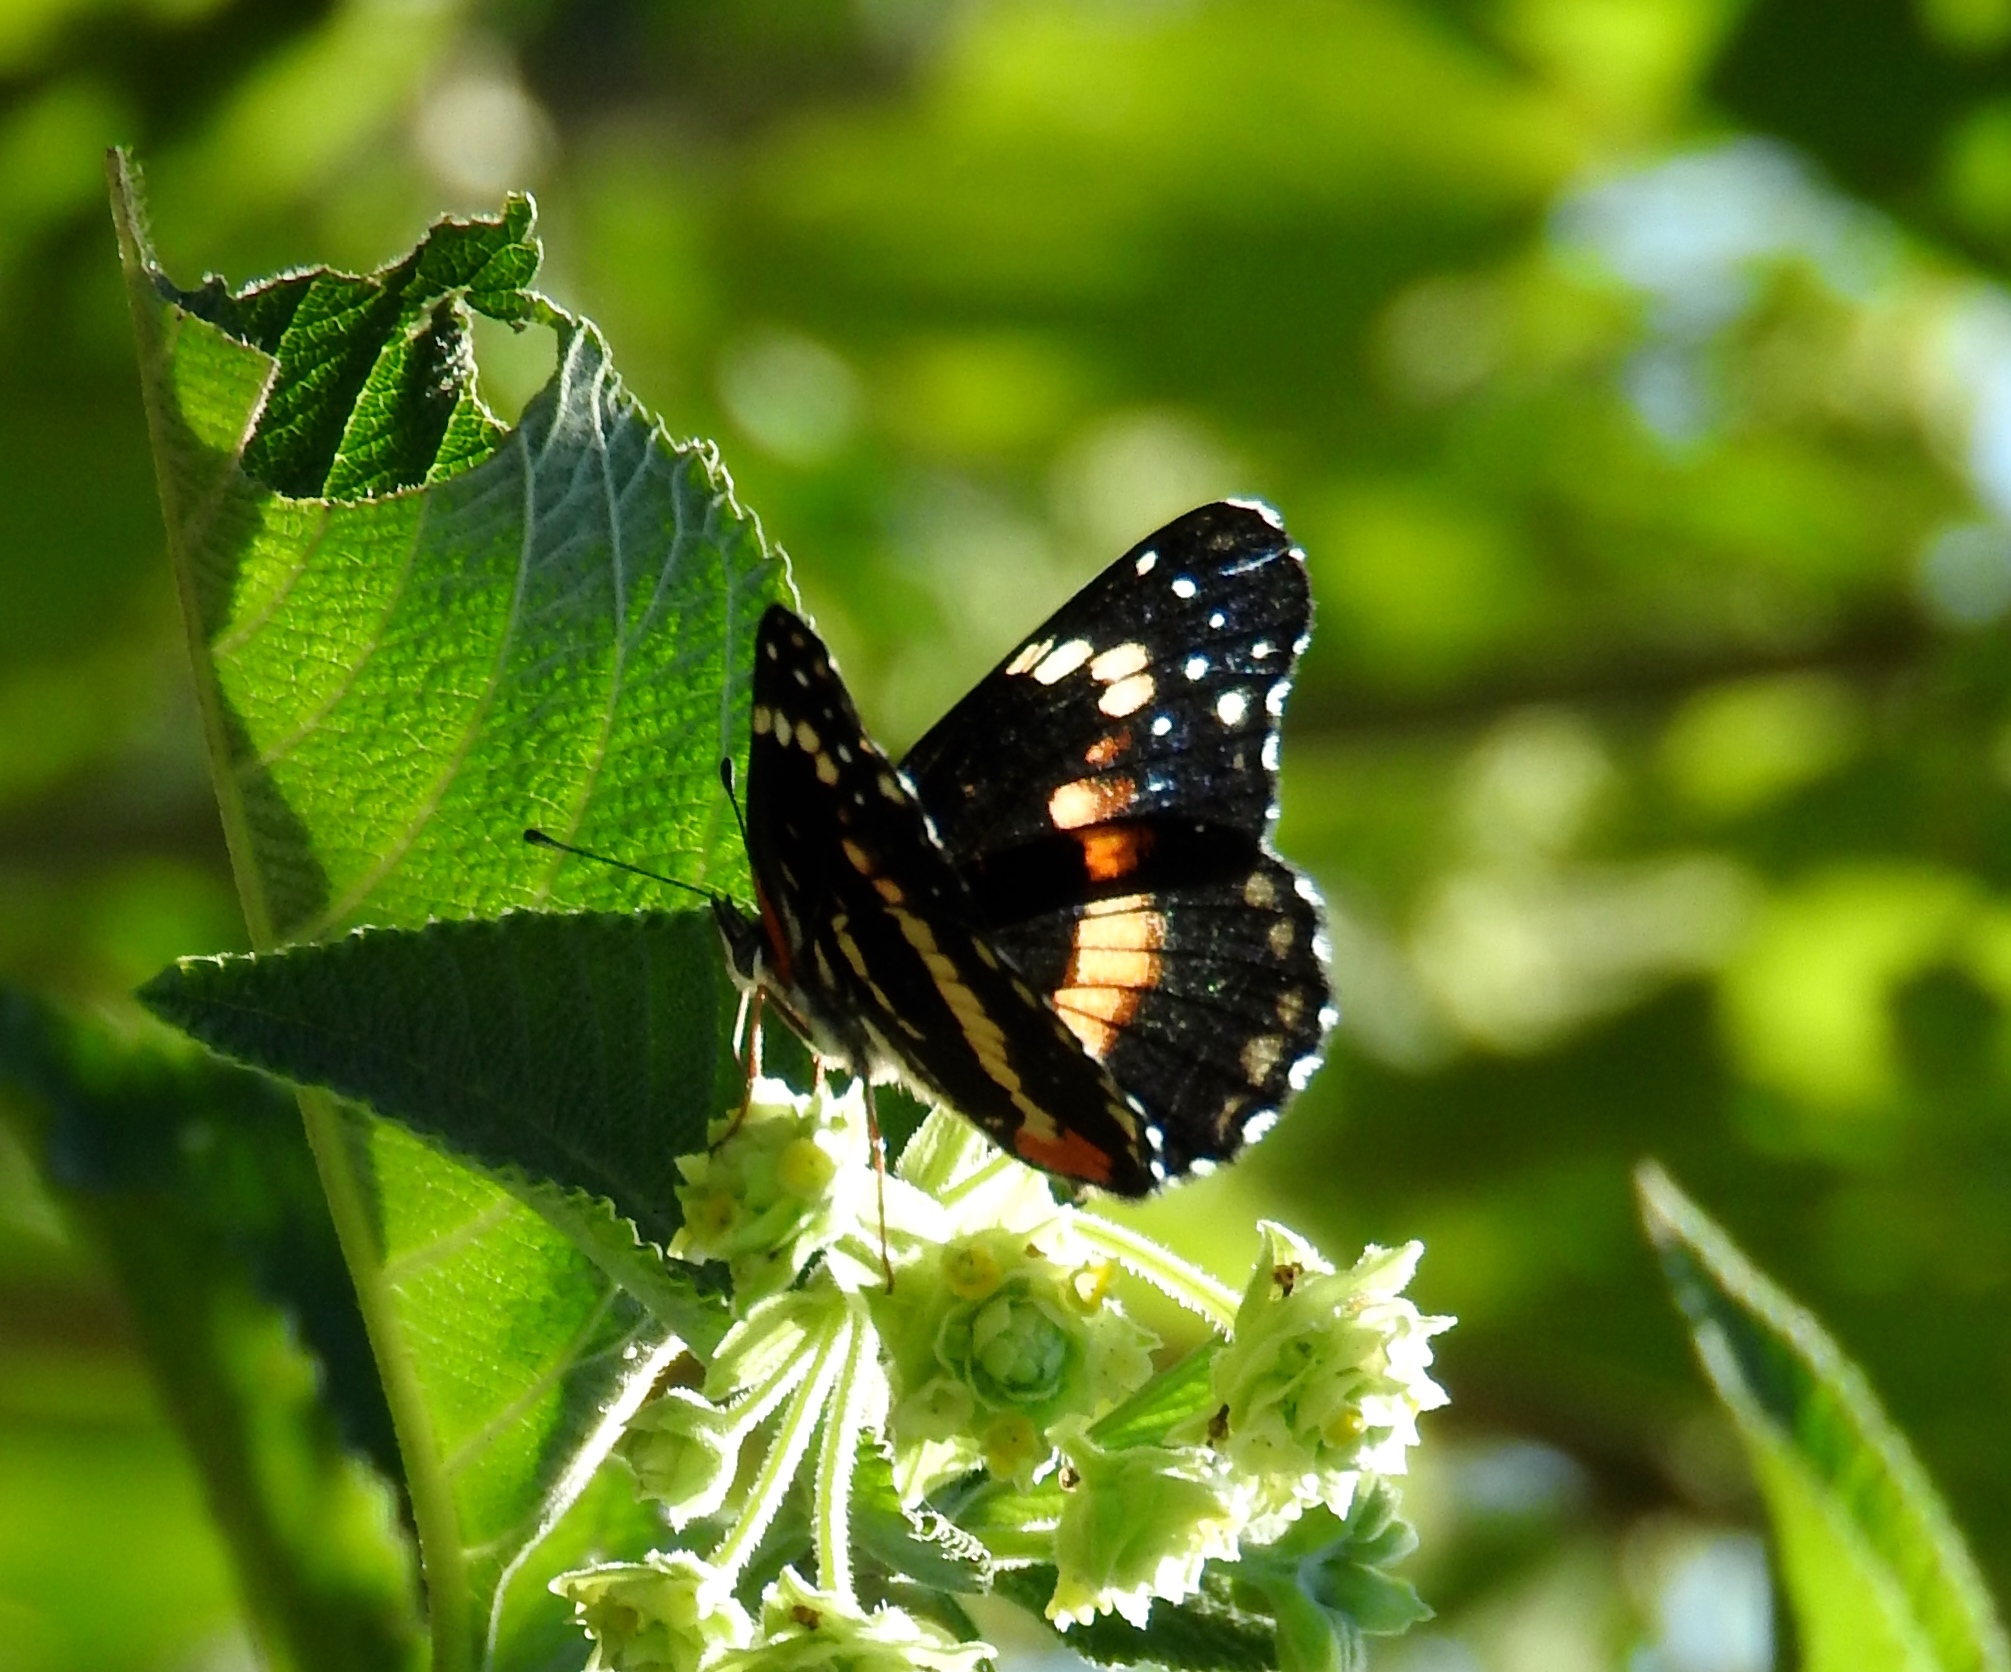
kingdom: Animalia
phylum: Arthropoda
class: Insecta
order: Lepidoptera
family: Nymphalidae
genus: Chlosyne
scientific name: Chlosyne lacinia
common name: Bordered patch
